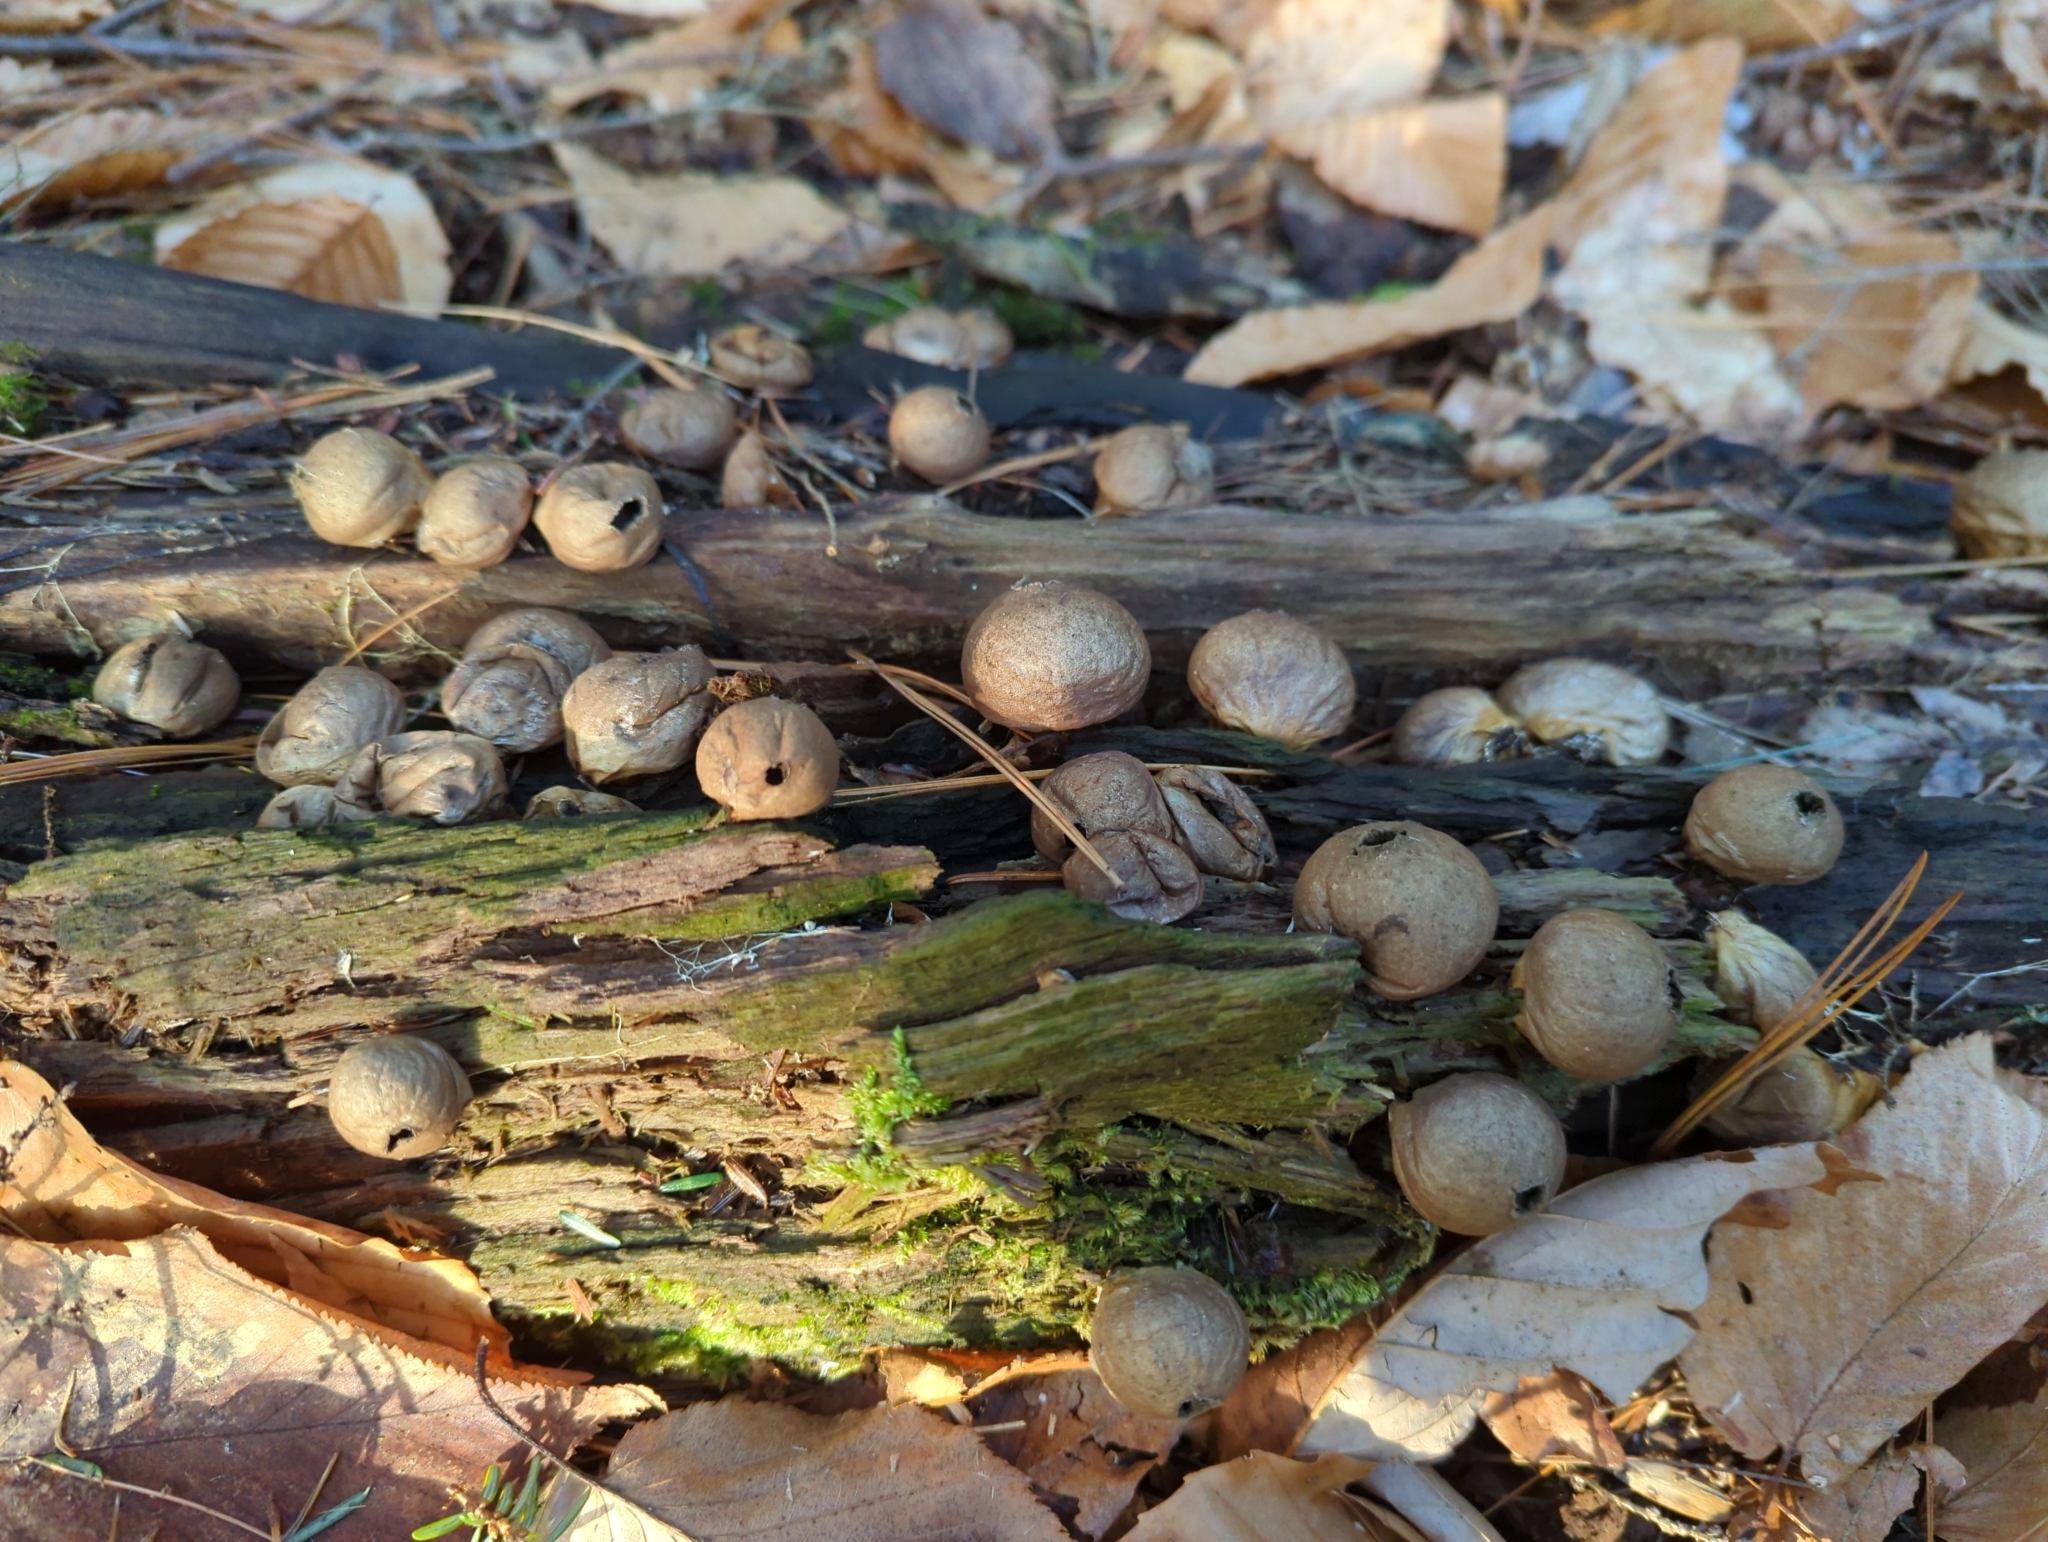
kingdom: Fungi
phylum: Basidiomycota
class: Agaricomycetes
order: Agaricales
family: Lycoperdaceae
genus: Apioperdon
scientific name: Apioperdon pyriforme
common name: Pear-shaped puffball
